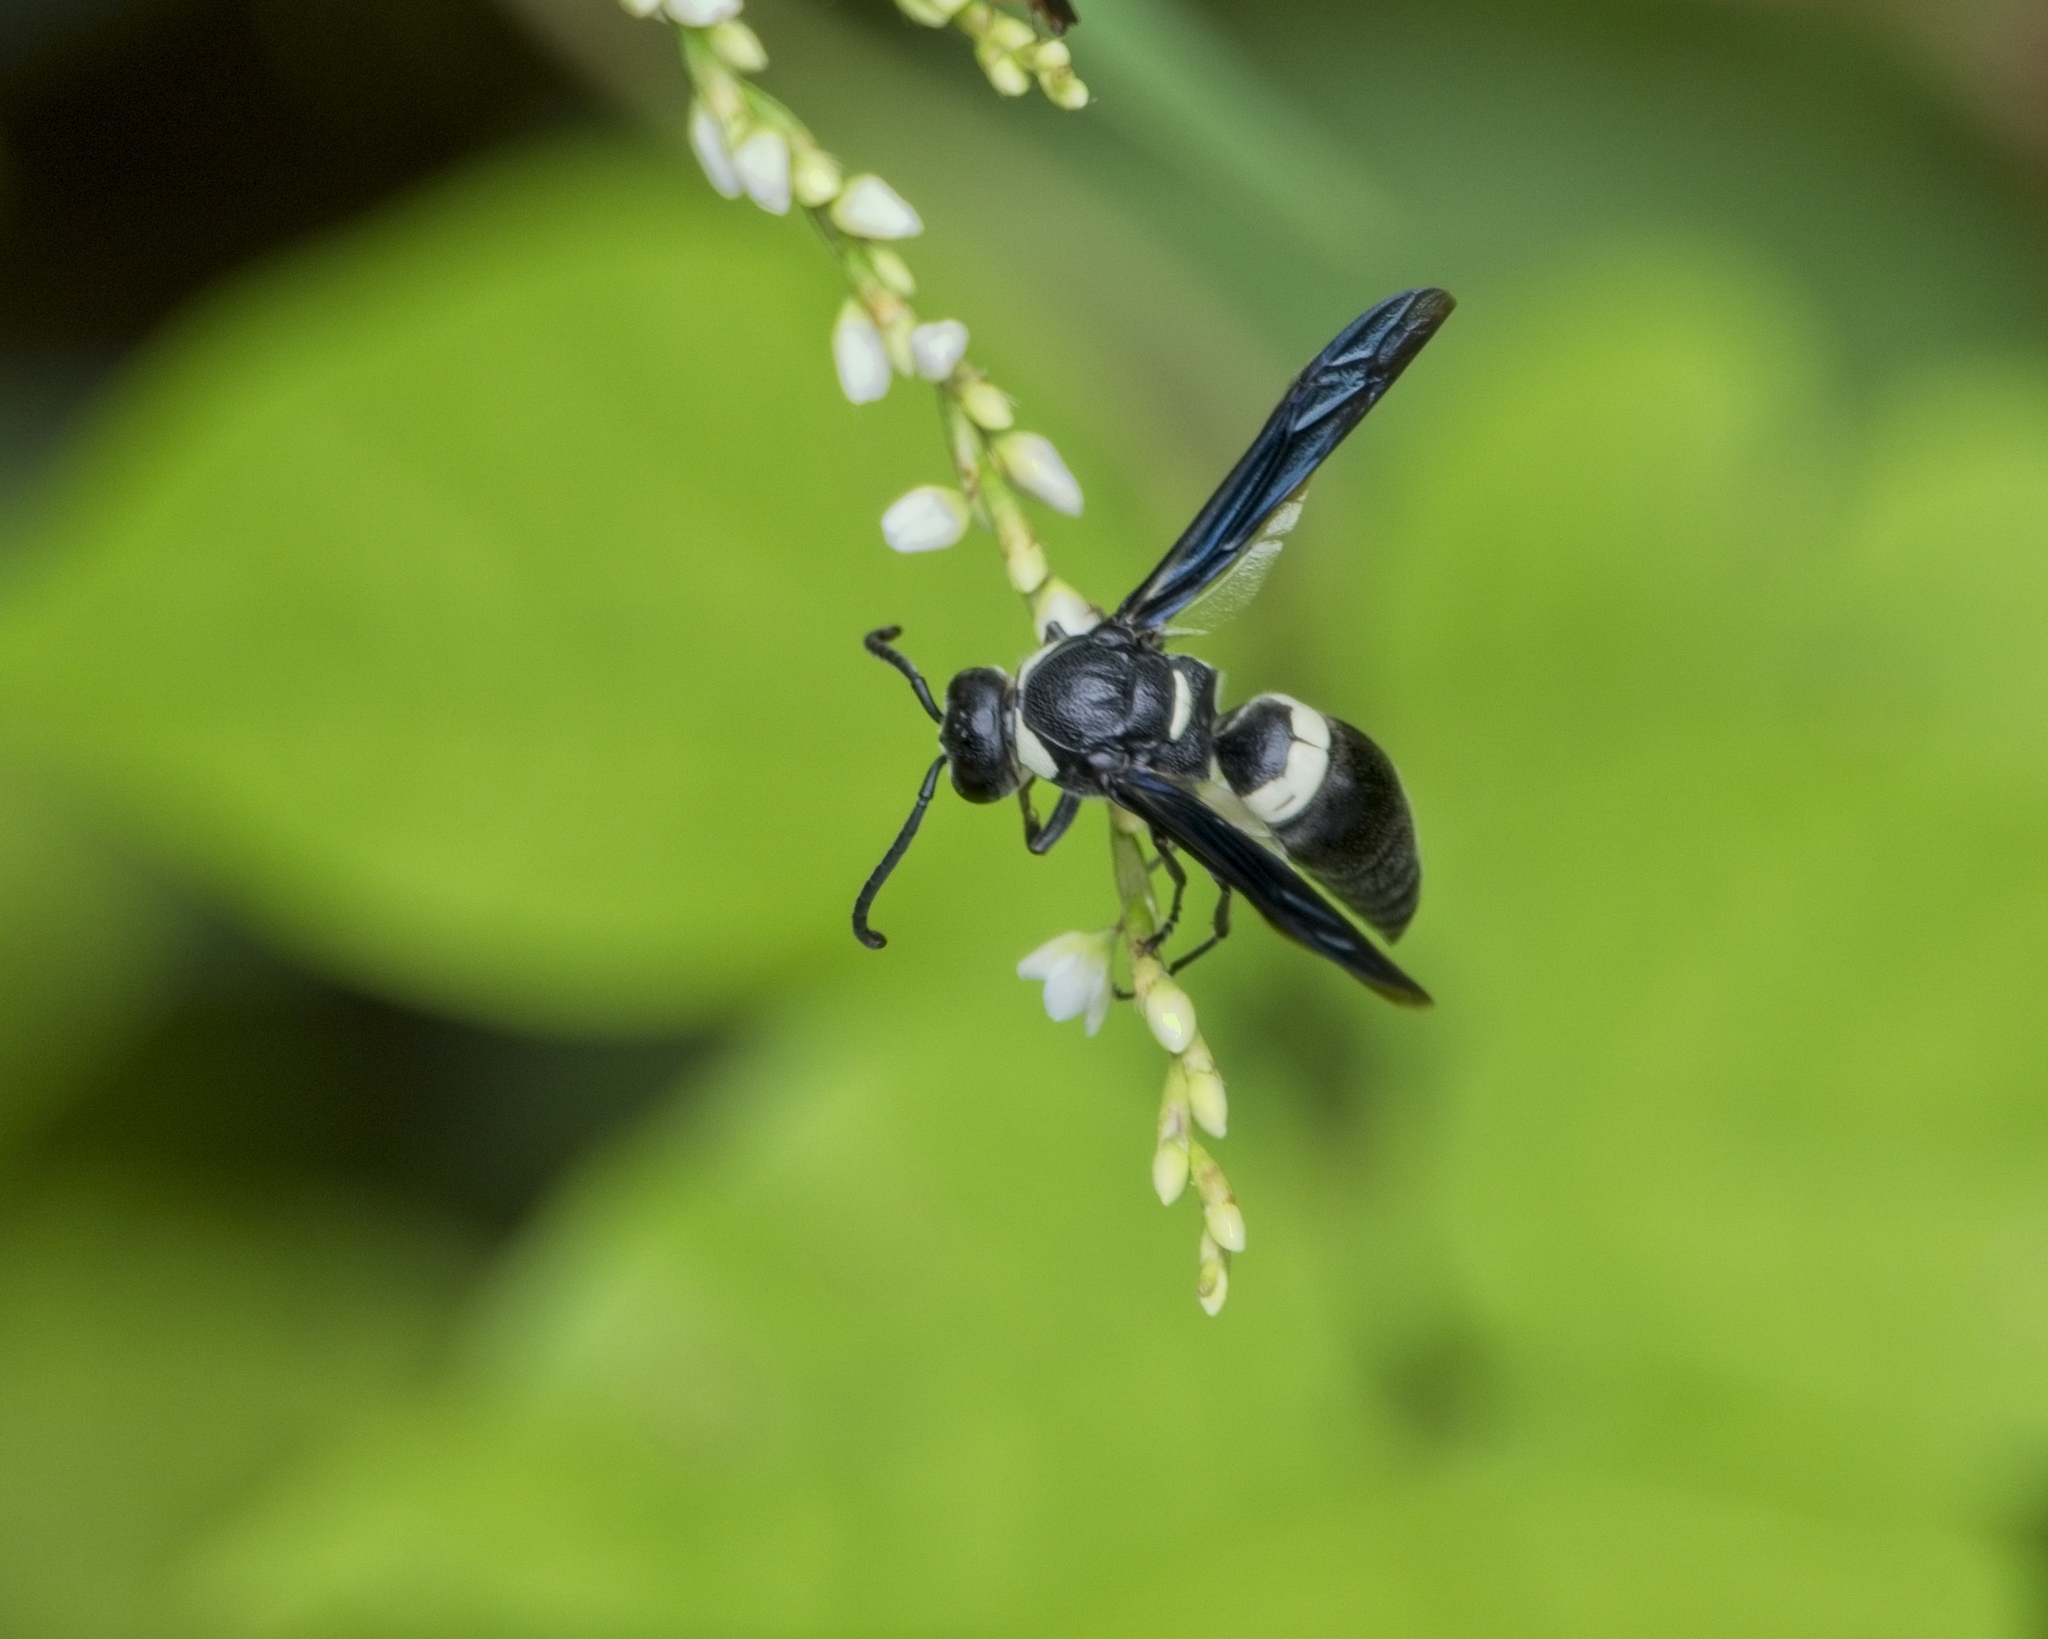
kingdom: Animalia
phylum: Arthropoda
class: Insecta
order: Hymenoptera
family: Eumenidae
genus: Monobia
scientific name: Monobia quadridens
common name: Four-toothed mason wasp
